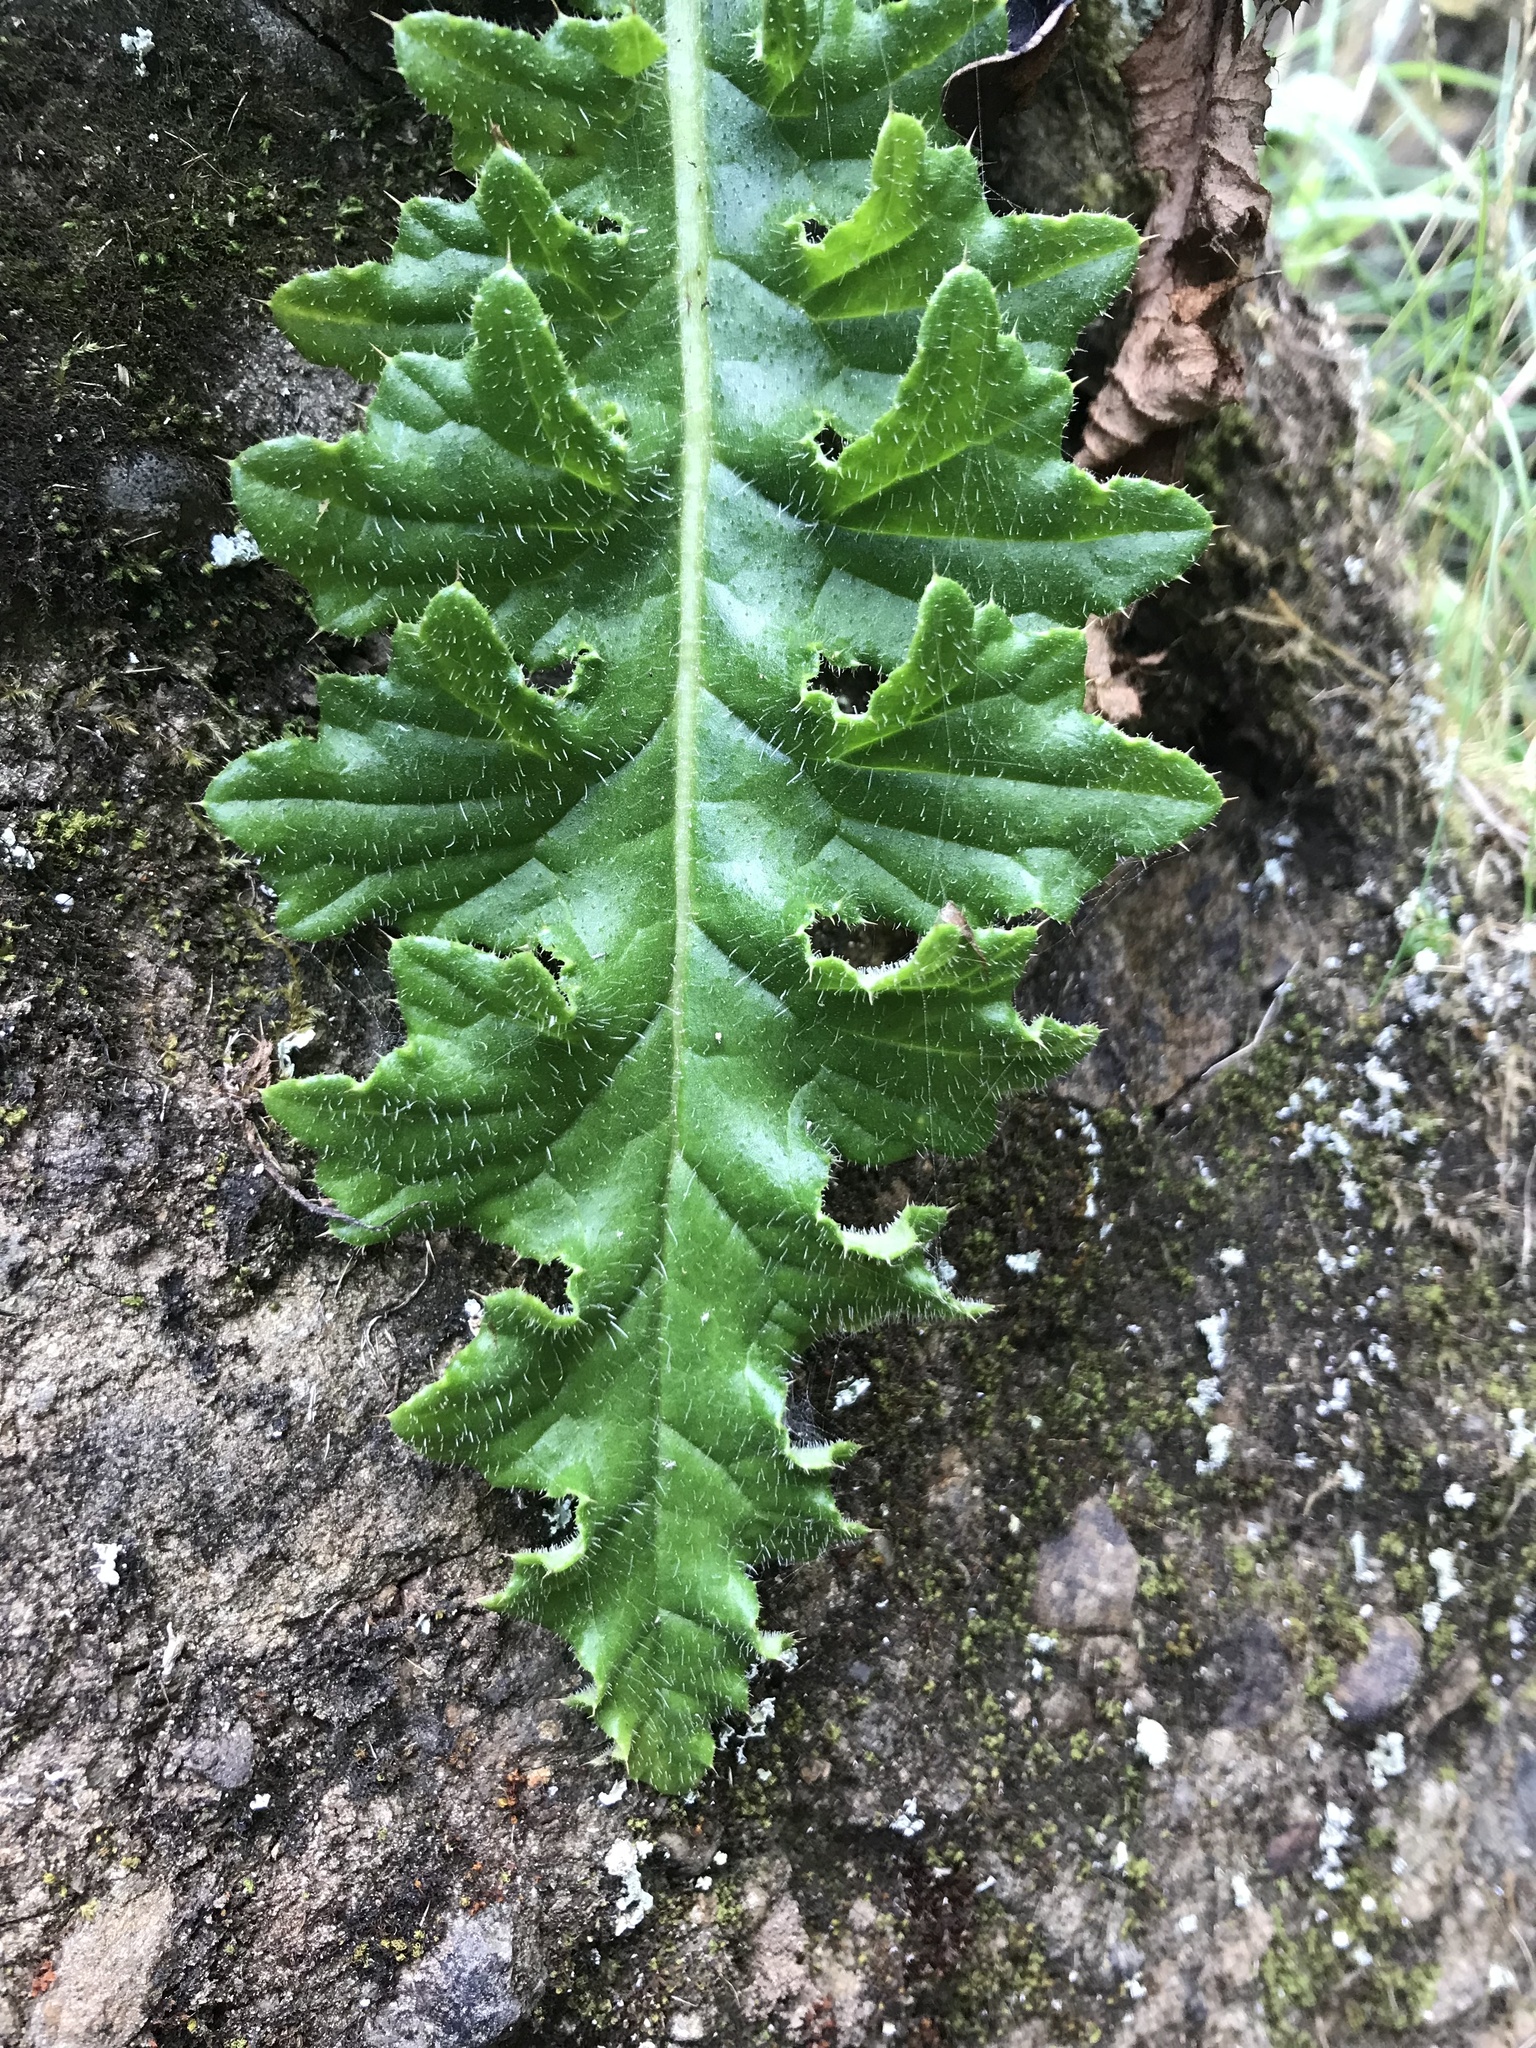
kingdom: Plantae
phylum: Tracheophyta
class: Magnoliopsida
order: Asterales
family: Asteraceae
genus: Cirsium
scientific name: Cirsium edule
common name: Indian thistle
